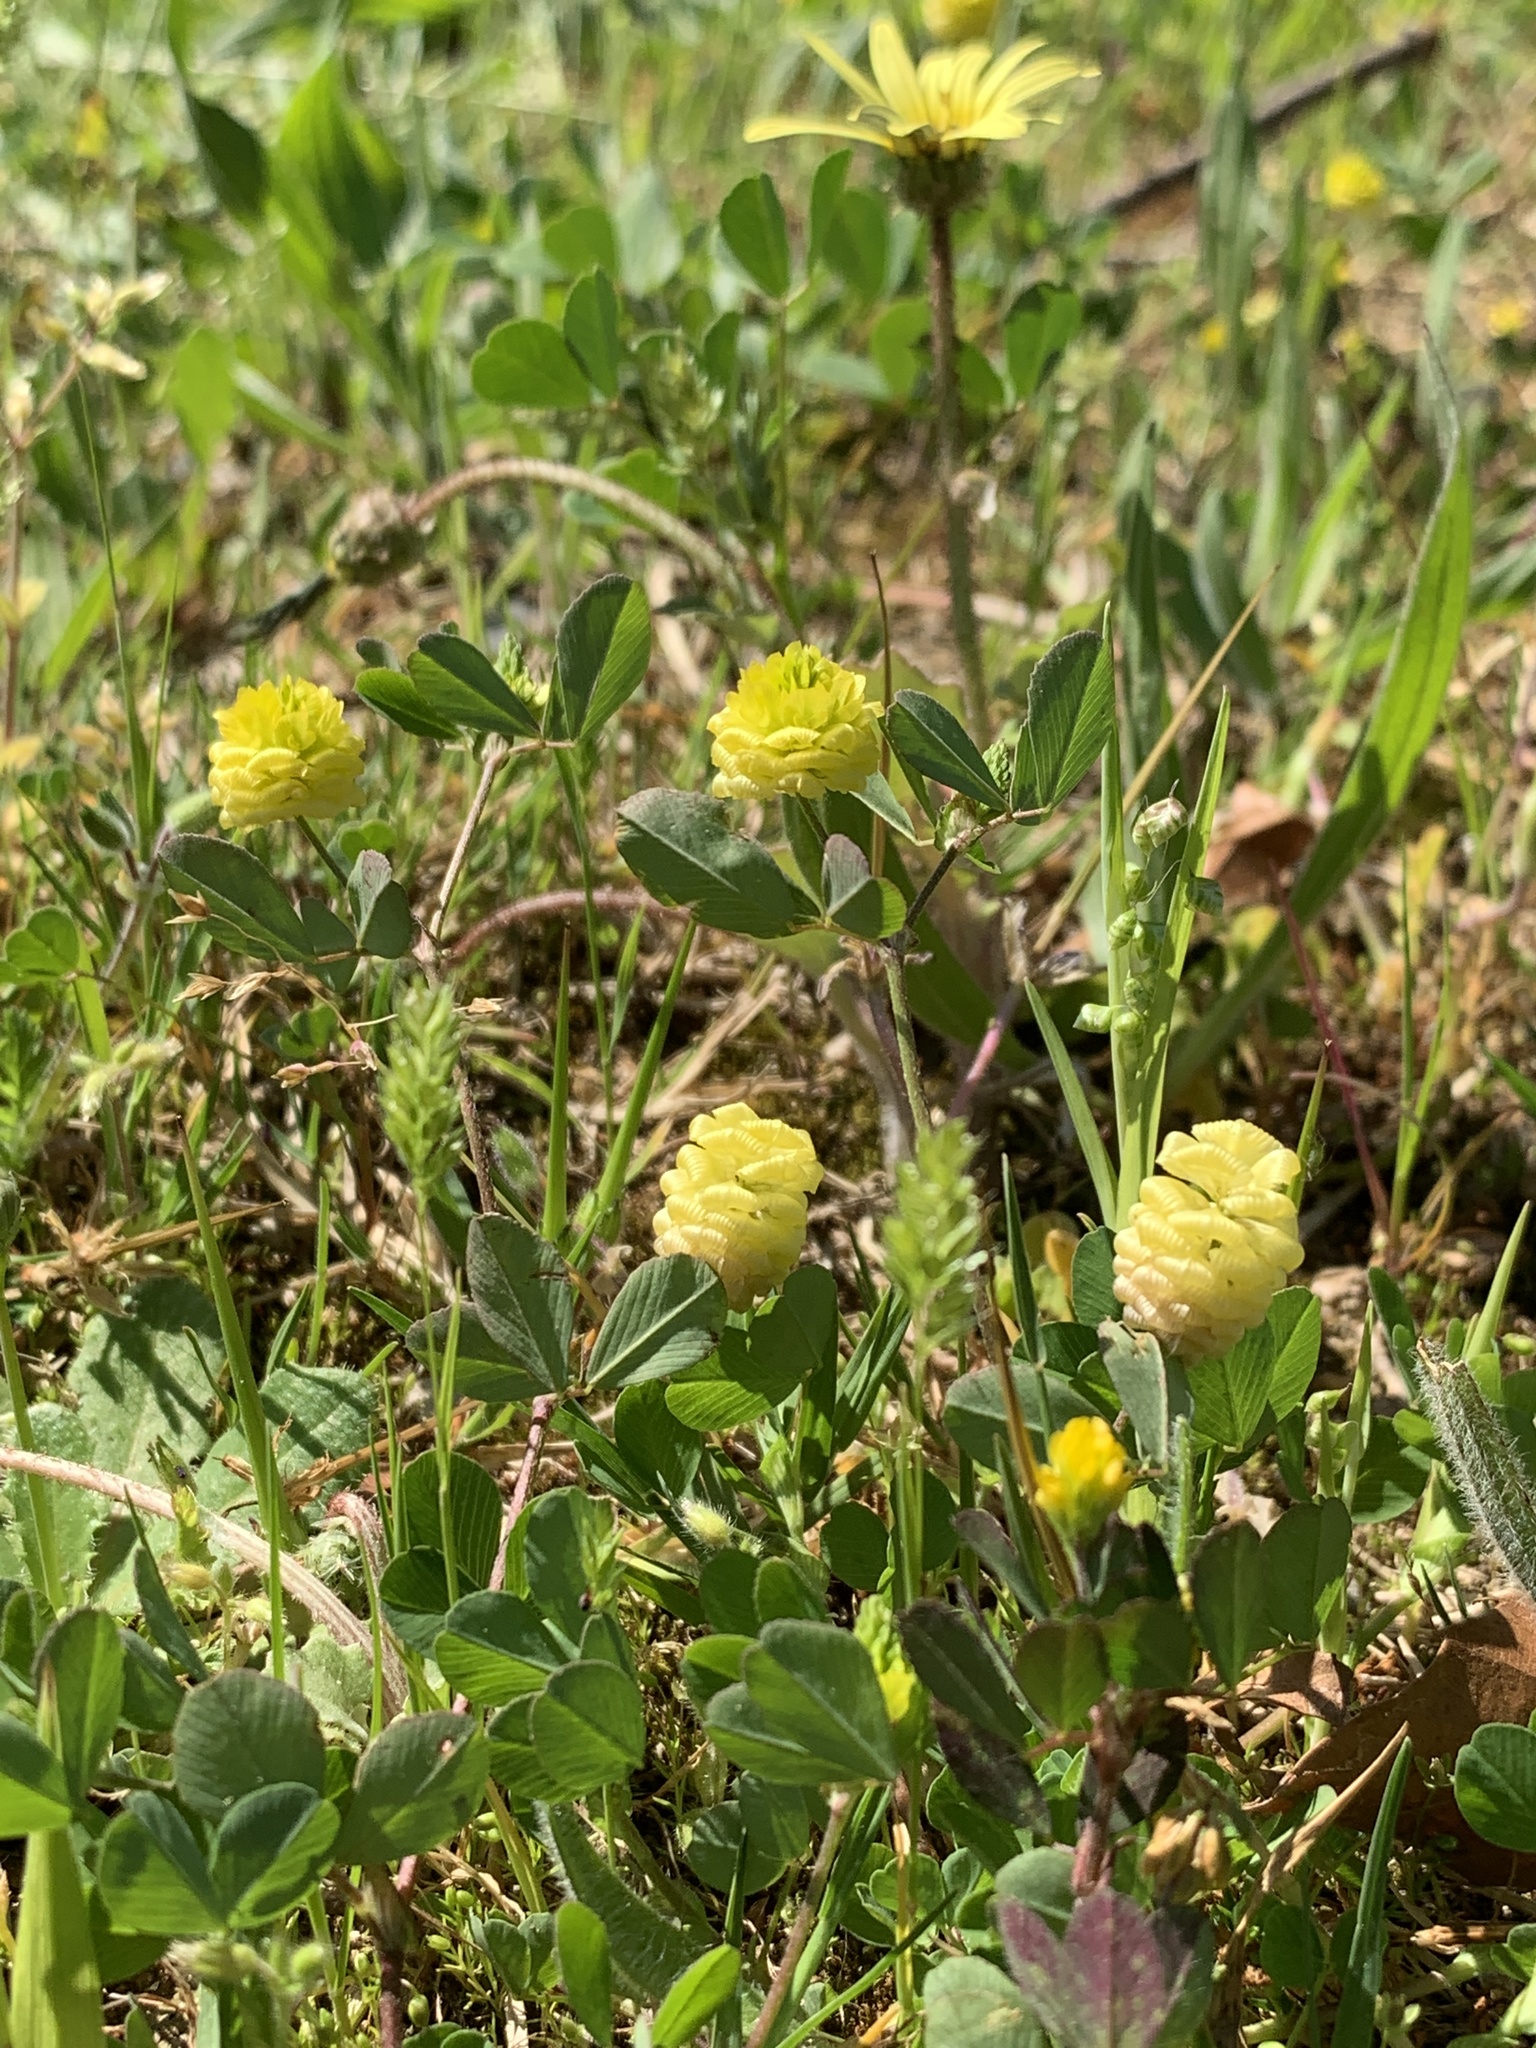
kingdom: Plantae
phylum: Tracheophyta
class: Magnoliopsida
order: Fabales
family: Fabaceae
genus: Trifolium
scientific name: Trifolium campestre
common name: Field clover
